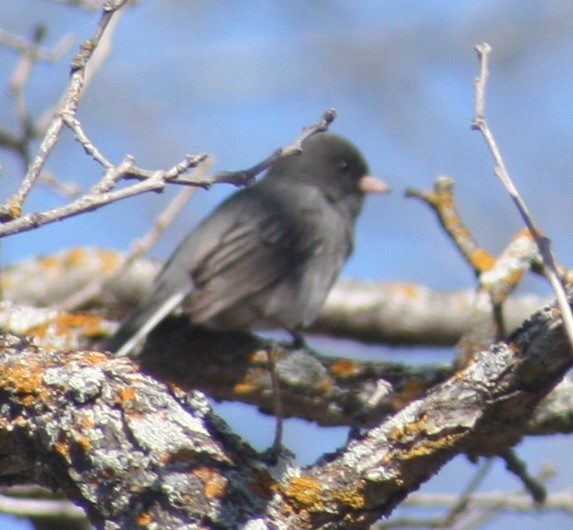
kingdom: Animalia
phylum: Chordata
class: Aves
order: Passeriformes
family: Passerellidae
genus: Junco
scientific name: Junco hyemalis
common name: Dark-eyed junco
